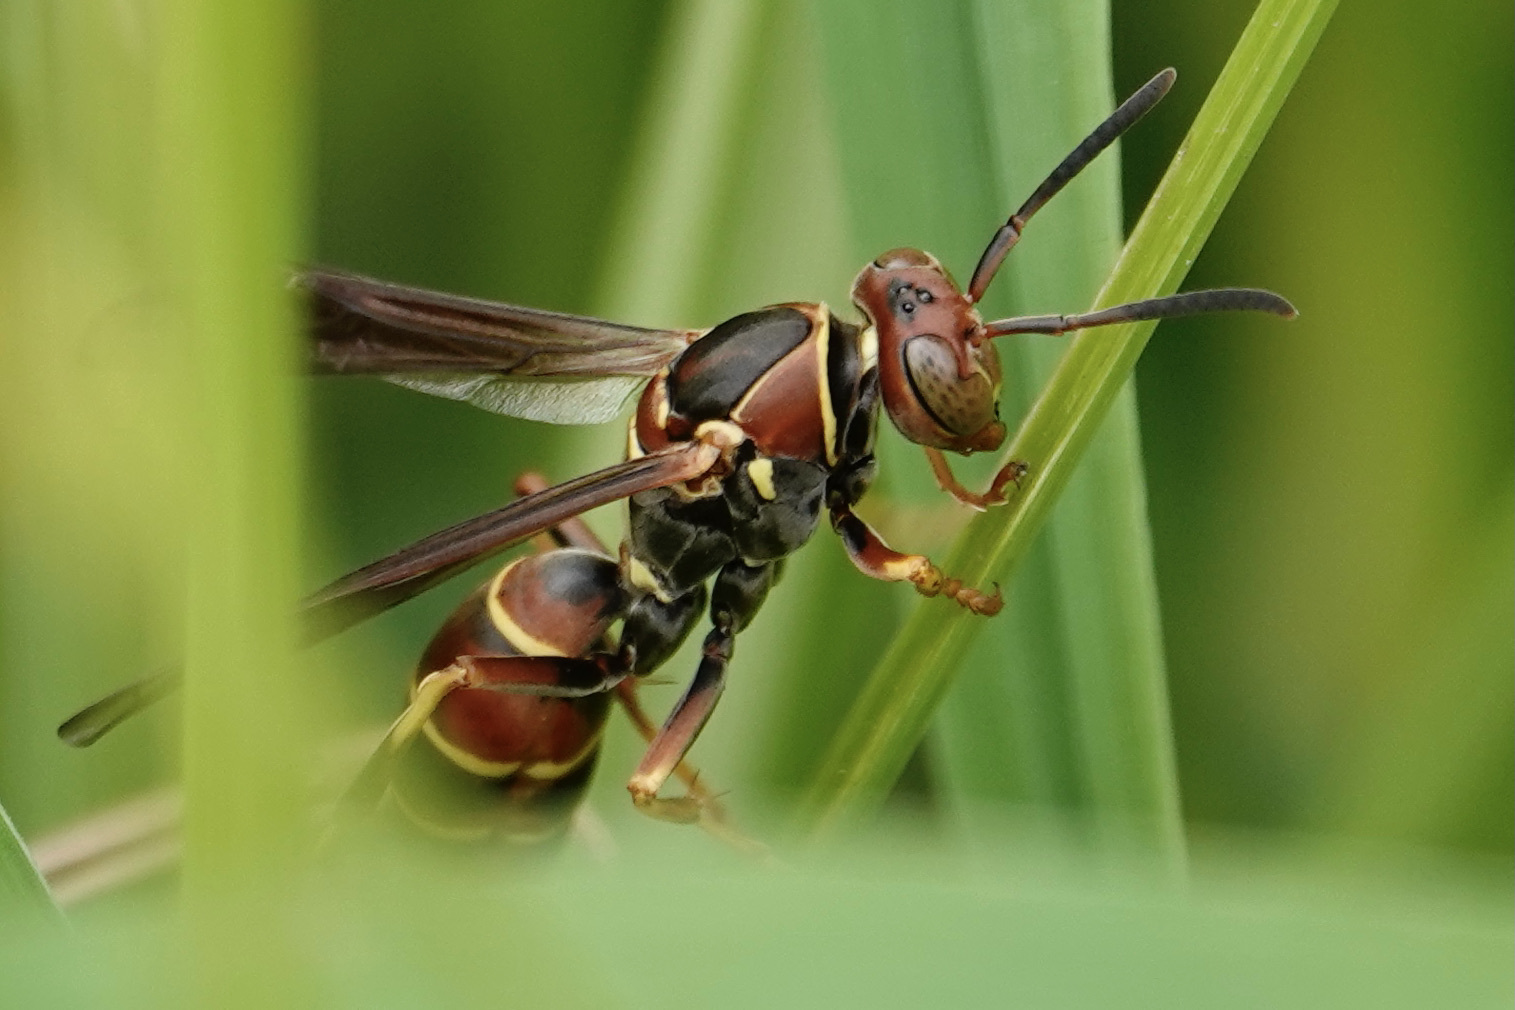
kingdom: Animalia
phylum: Arthropoda
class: Insecta
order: Hymenoptera
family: Eumenidae
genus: Polistes
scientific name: Polistes dorsalis
